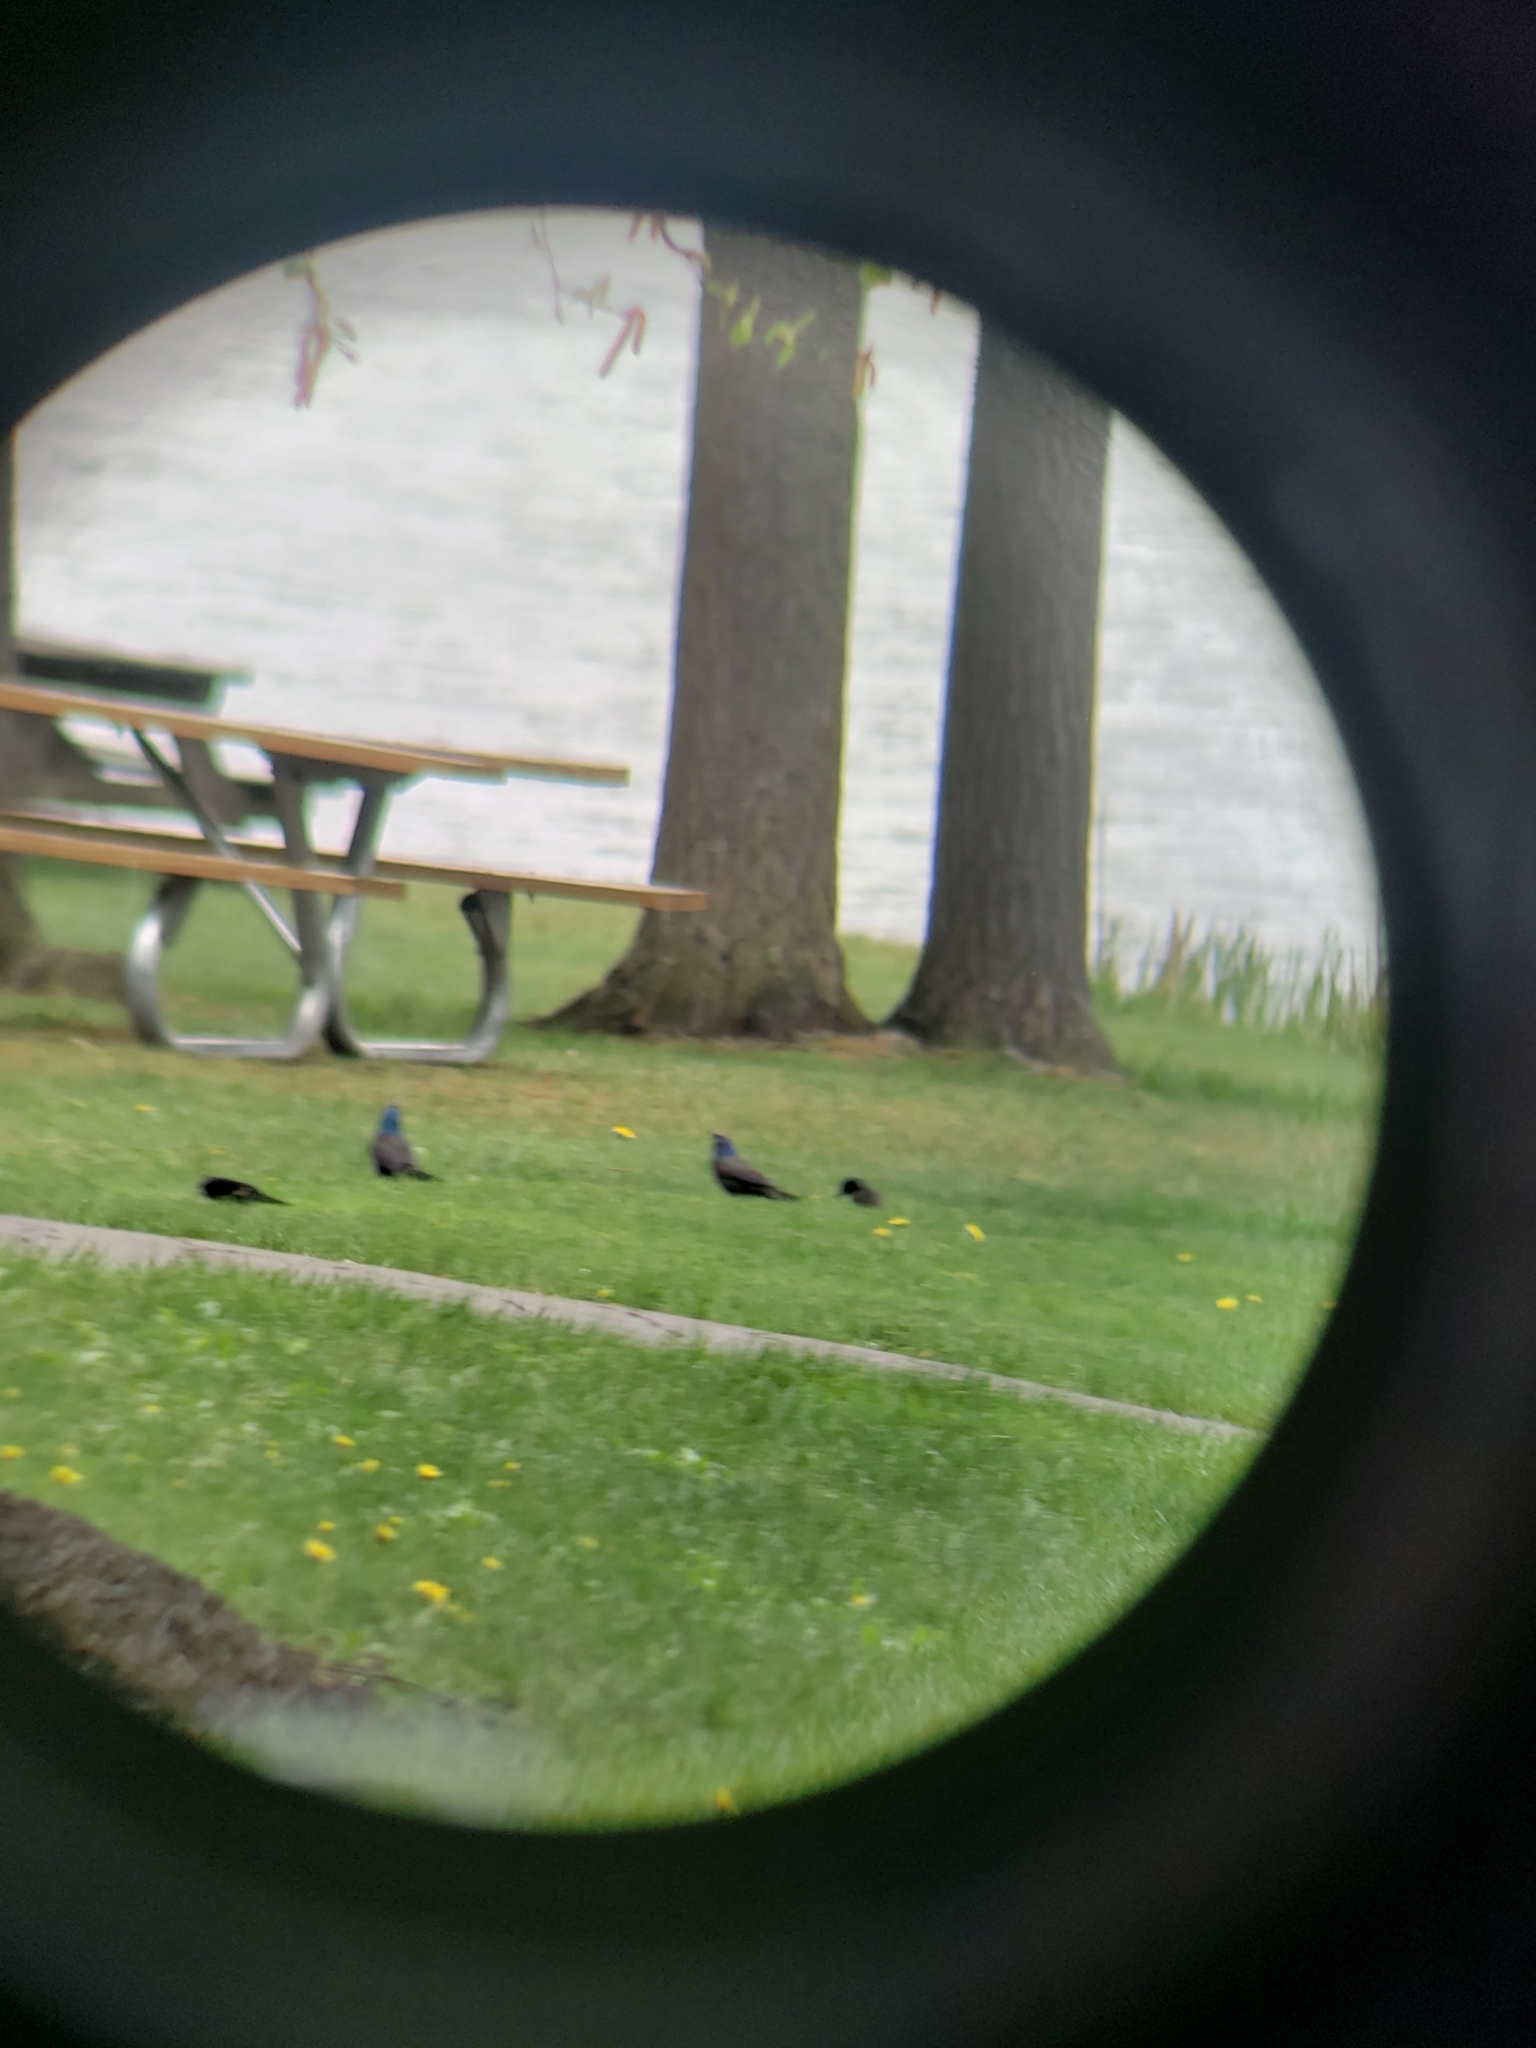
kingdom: Animalia
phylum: Chordata
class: Aves
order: Passeriformes
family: Icteridae
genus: Quiscalus
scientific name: Quiscalus quiscula
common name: Common grackle
